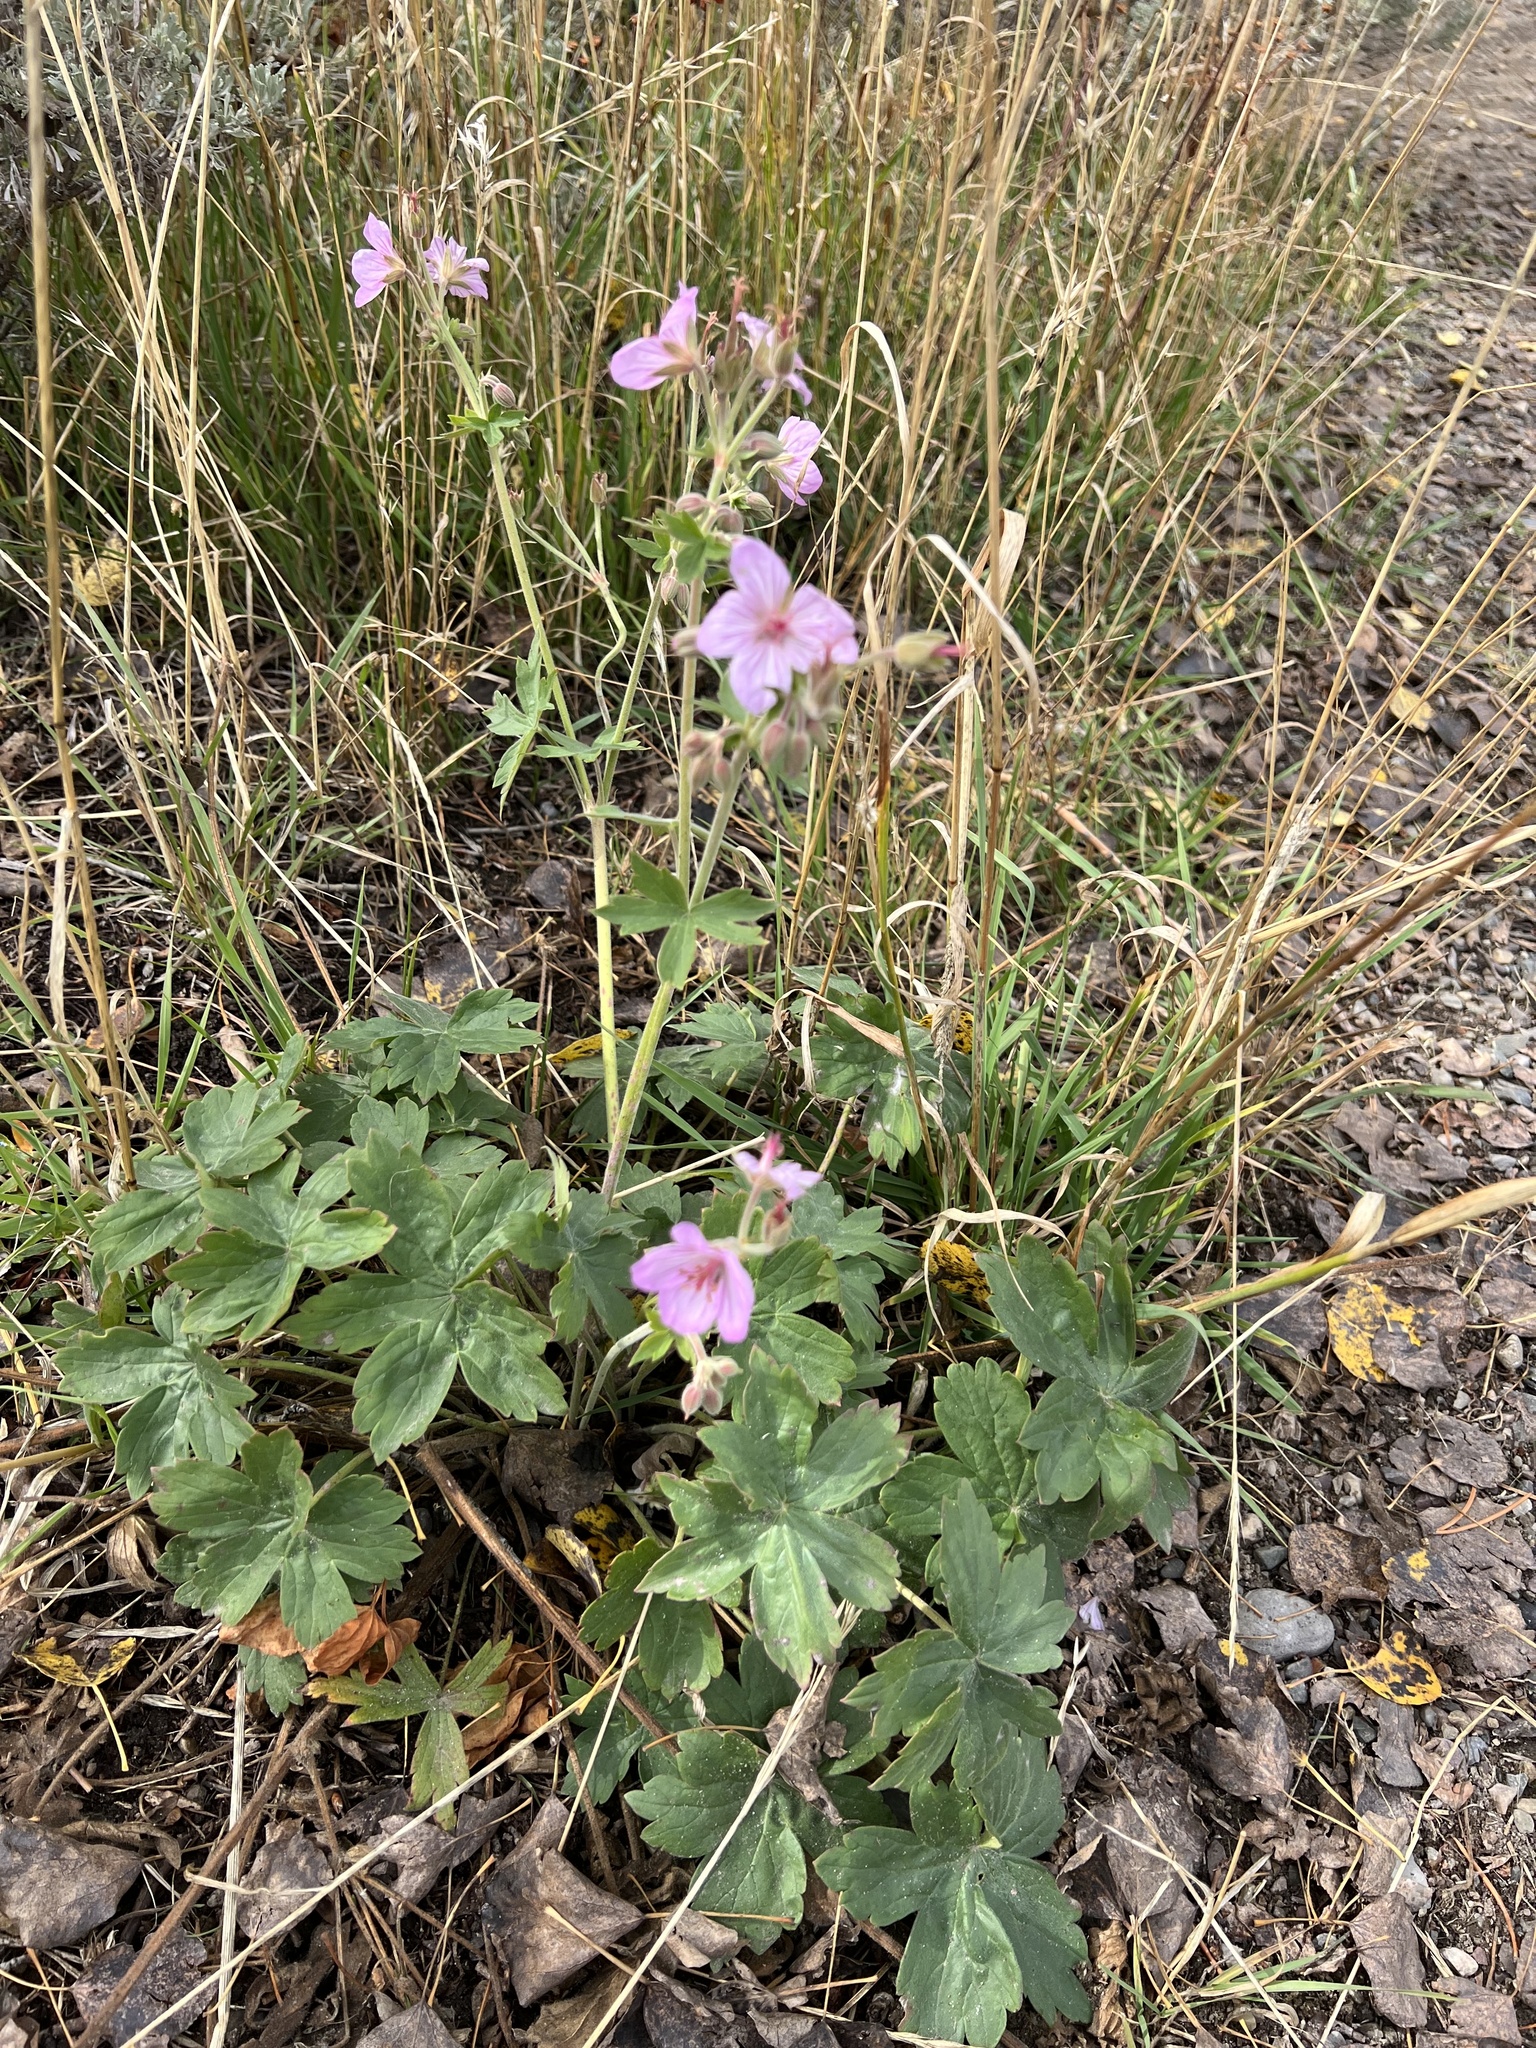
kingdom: Plantae
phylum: Tracheophyta
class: Magnoliopsida
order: Geraniales
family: Geraniaceae
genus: Geranium
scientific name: Geranium viscosissimum
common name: Purple geranium
